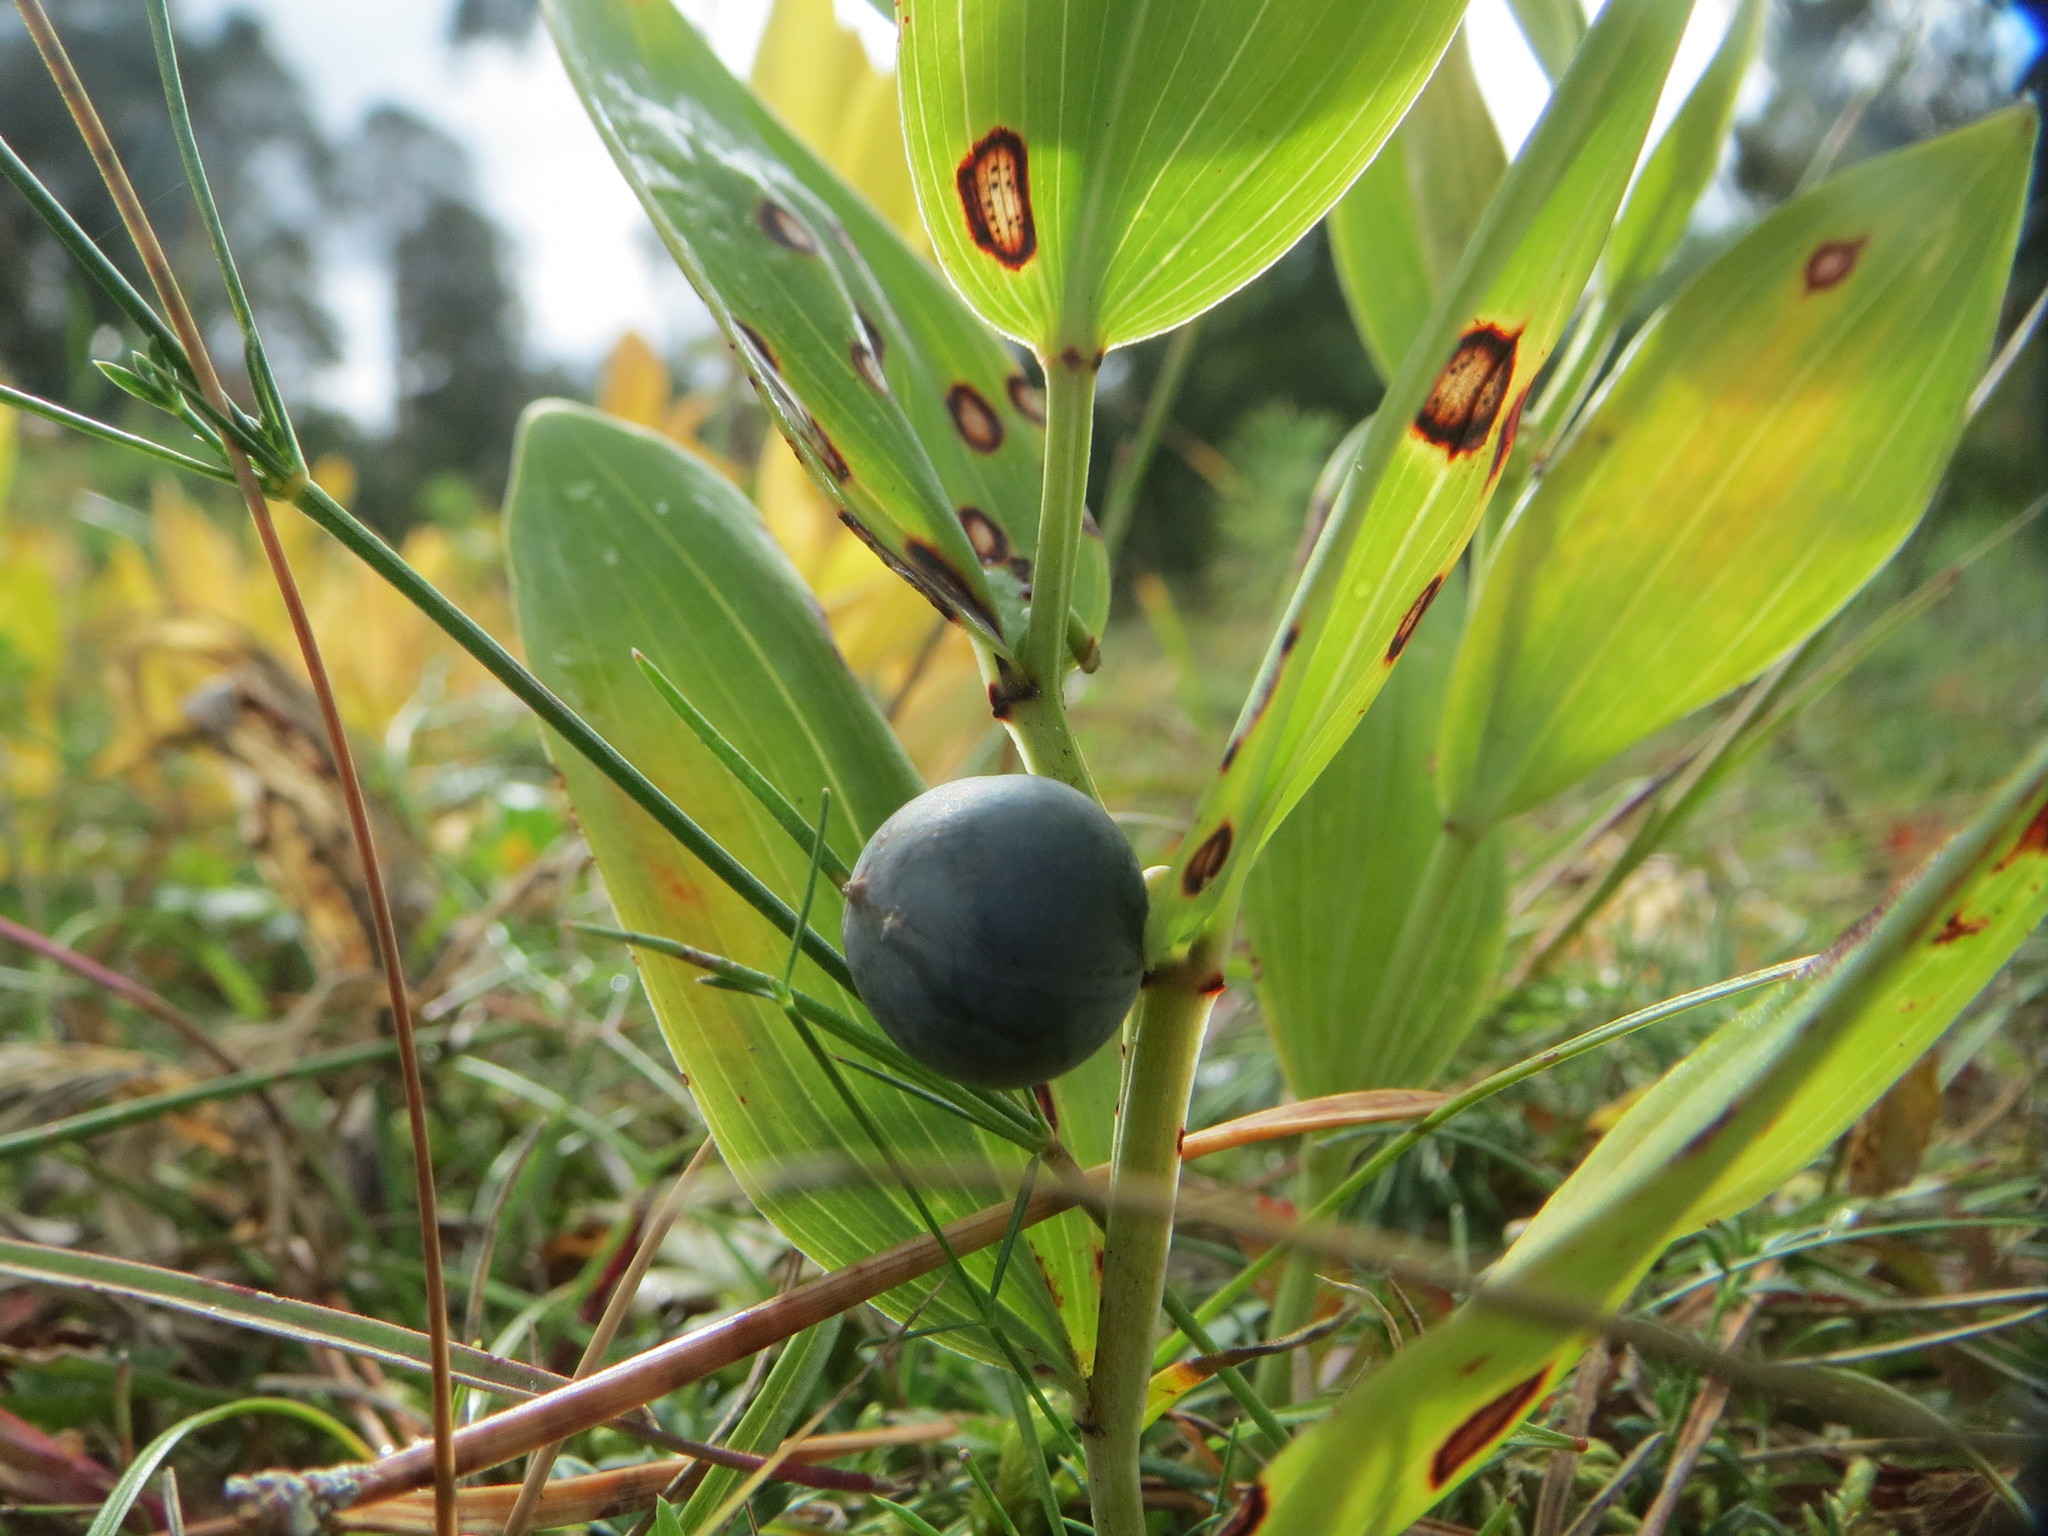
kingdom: Plantae
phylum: Tracheophyta
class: Liliopsida
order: Asparagales
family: Asparagaceae
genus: Polygonatum
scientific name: Polygonatum odoratum
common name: Angular solomon's-seal
